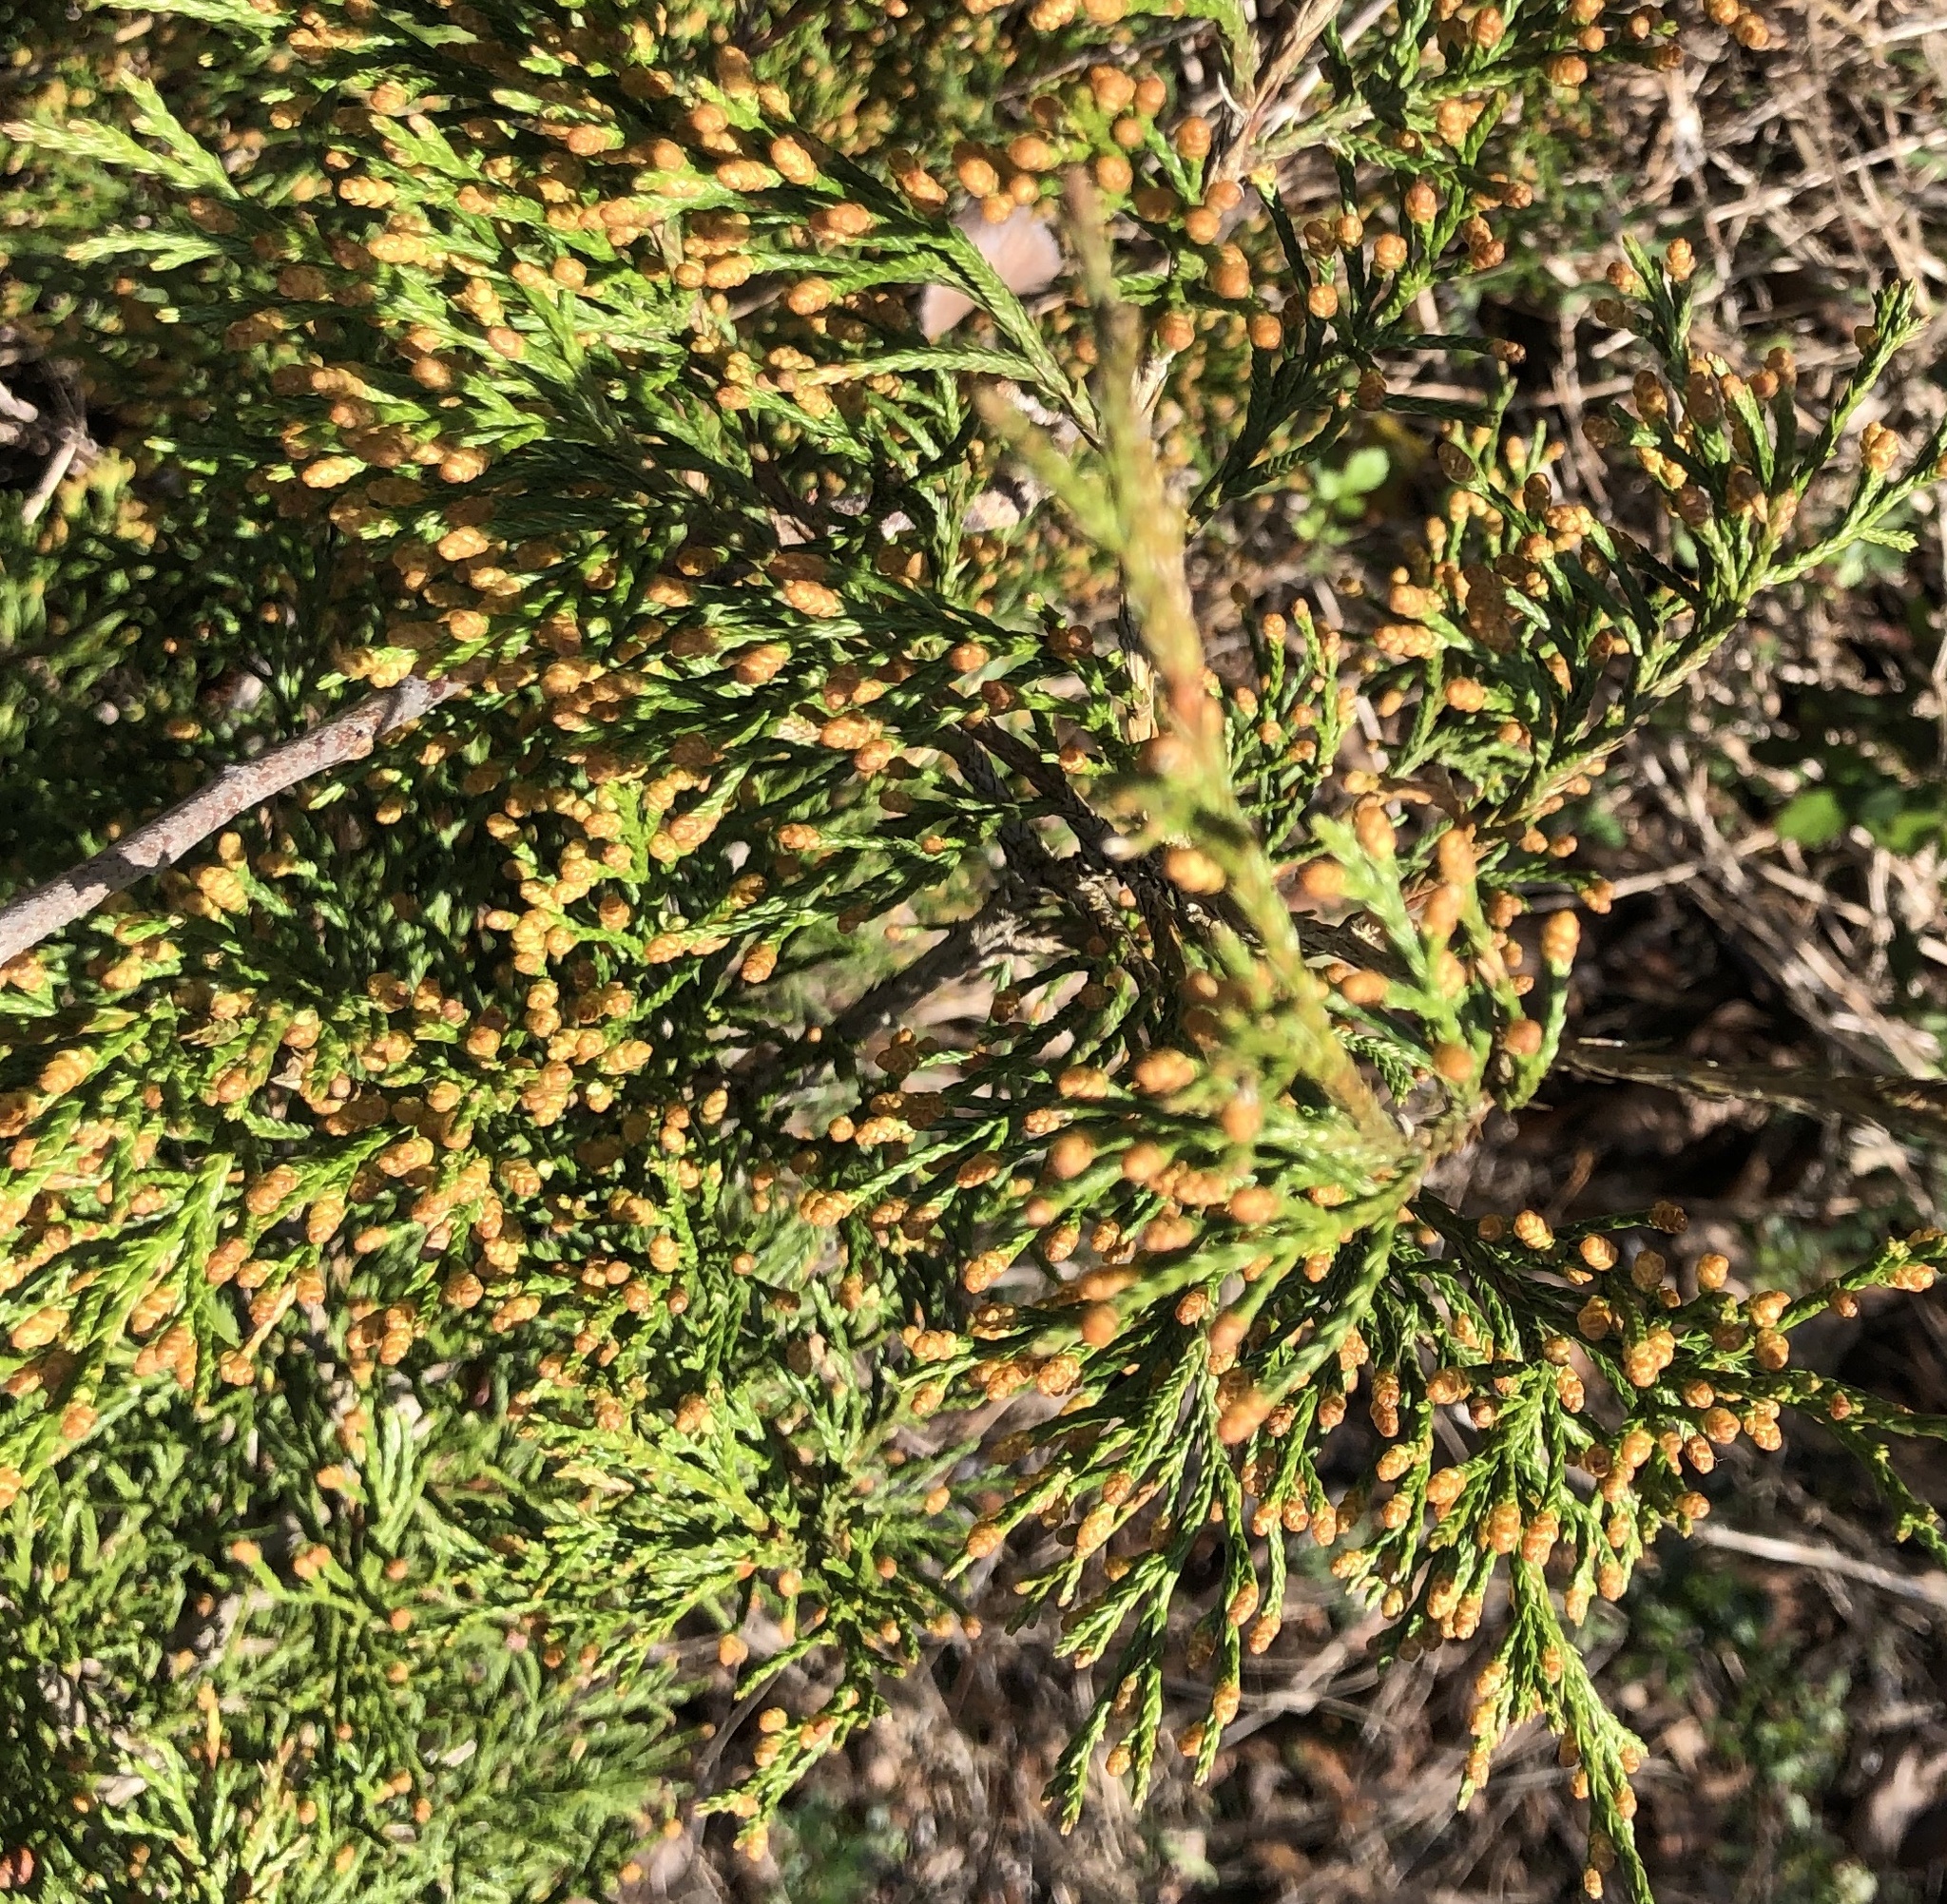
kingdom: Plantae
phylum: Tracheophyta
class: Pinopsida
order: Pinales
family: Cupressaceae
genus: Juniperus
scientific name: Juniperus virginiana
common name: Red juniper
